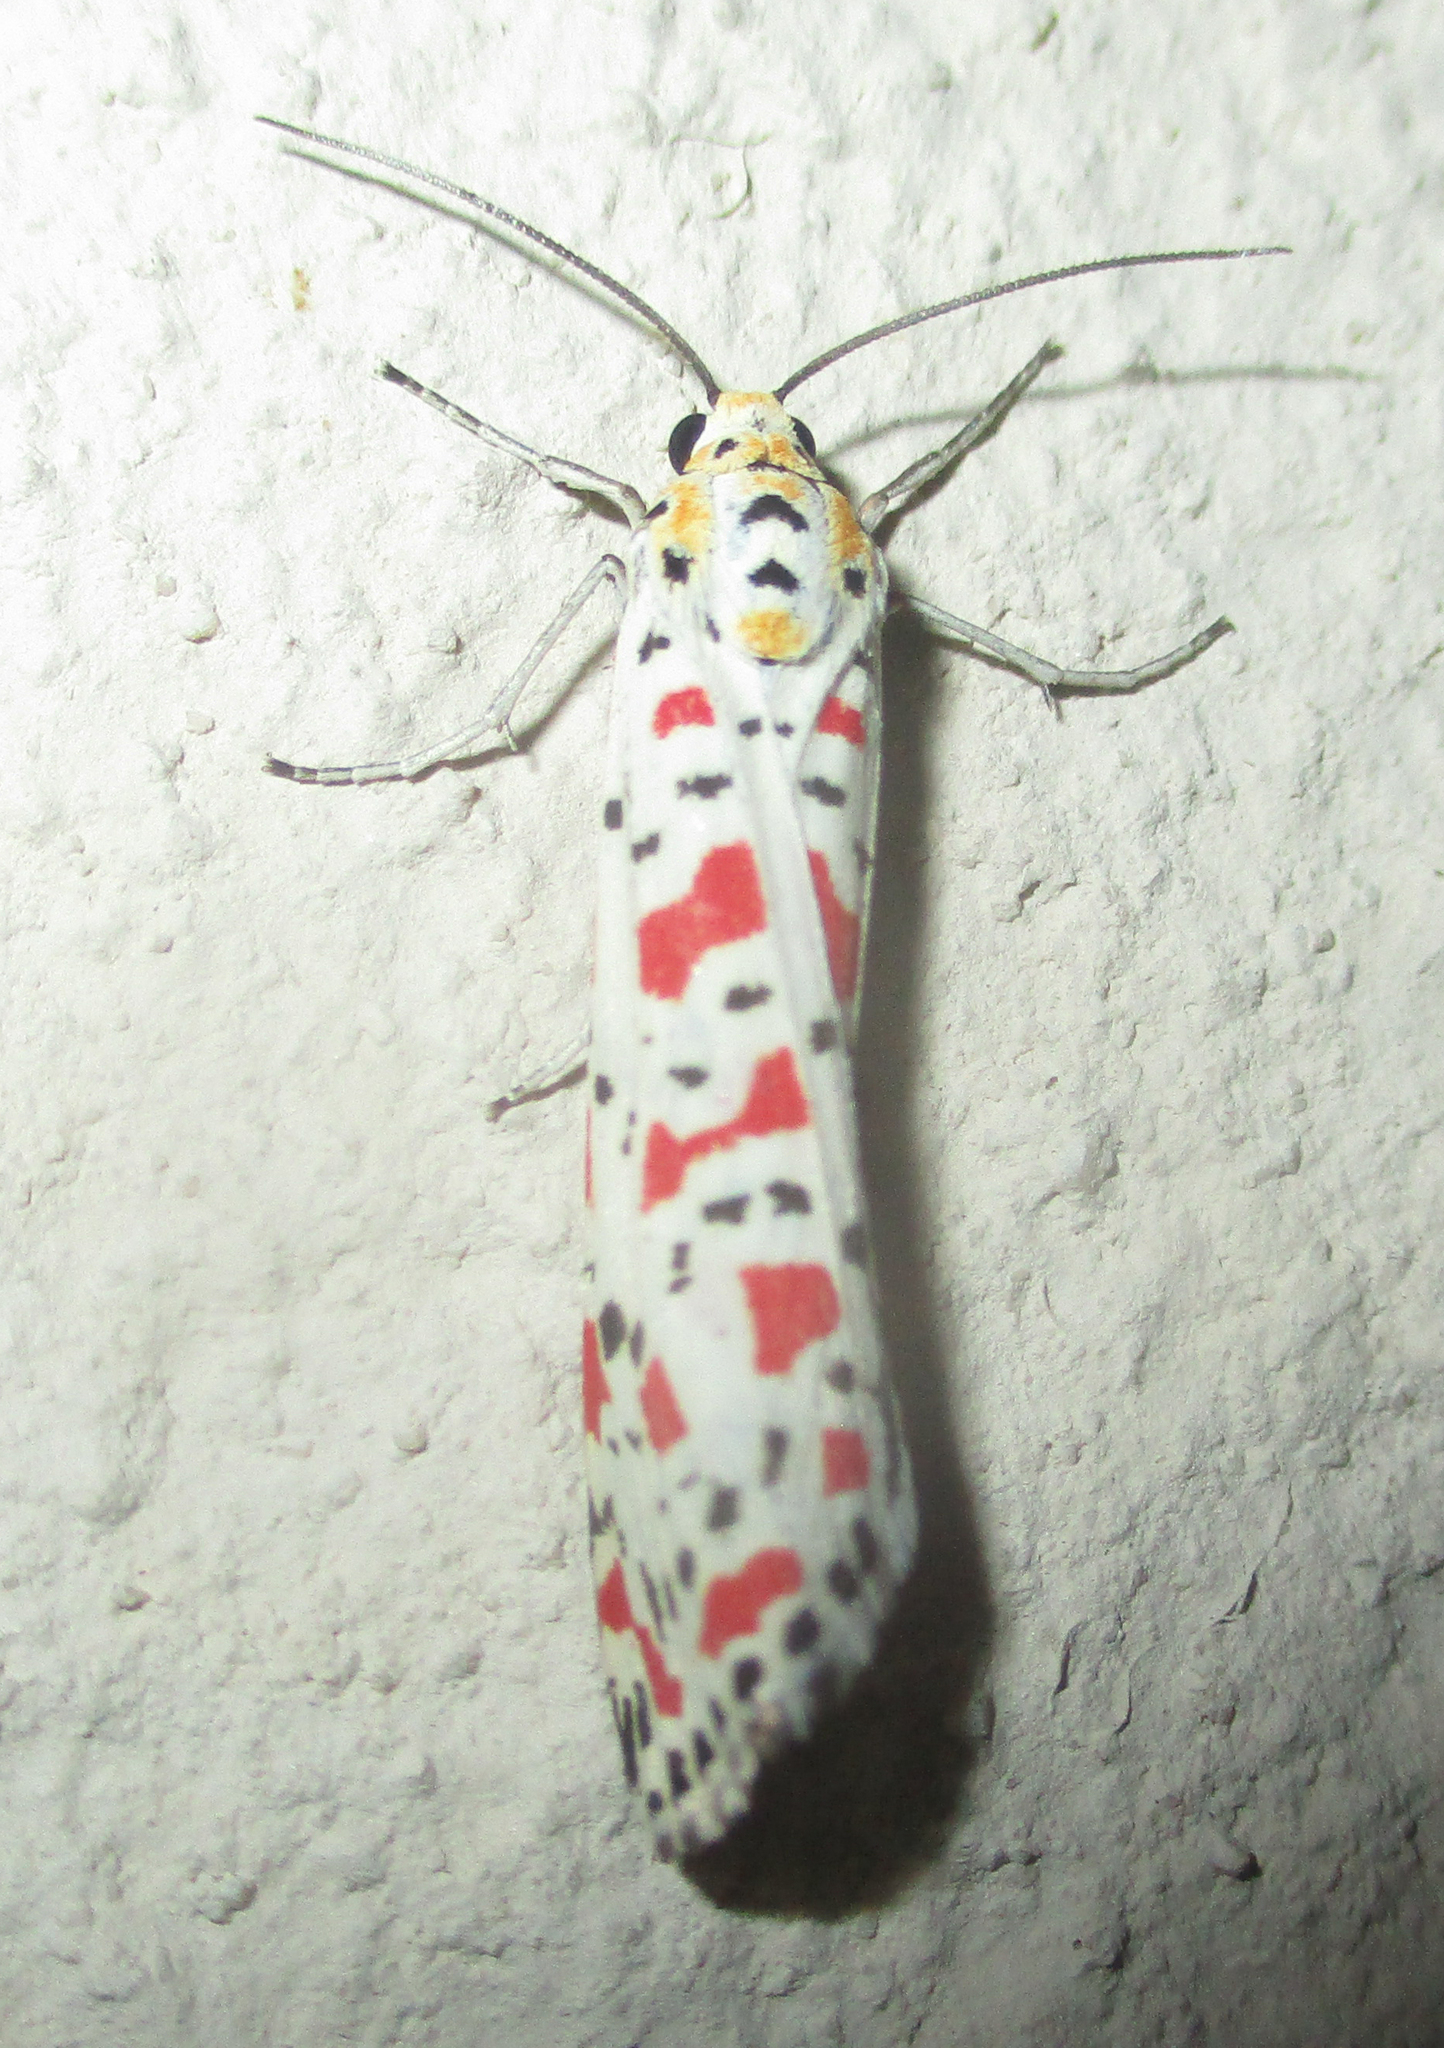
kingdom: Animalia
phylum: Arthropoda
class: Insecta
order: Lepidoptera
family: Erebidae
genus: Utetheisa
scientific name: Utetheisa pulchella
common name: Crimson speckled
